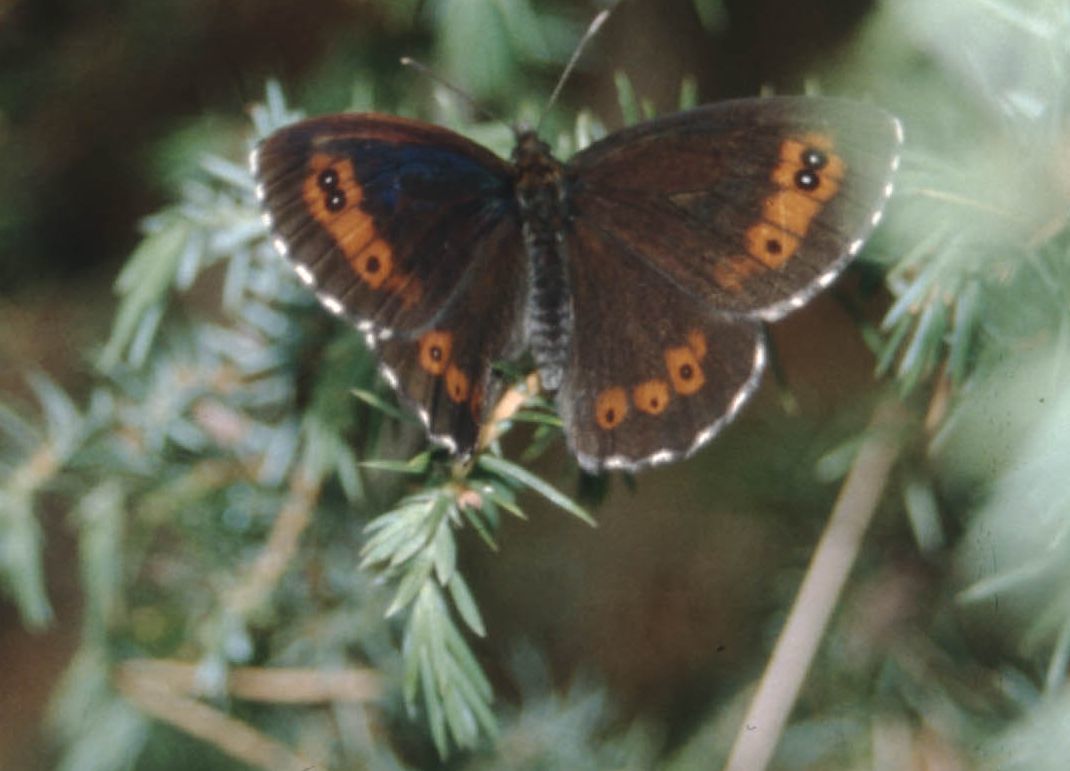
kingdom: Plantae
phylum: Tracheophyta
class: Pinopsida
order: Pinales
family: Cupressaceae
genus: Juniperus
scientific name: Juniperus communis
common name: Common juniper
